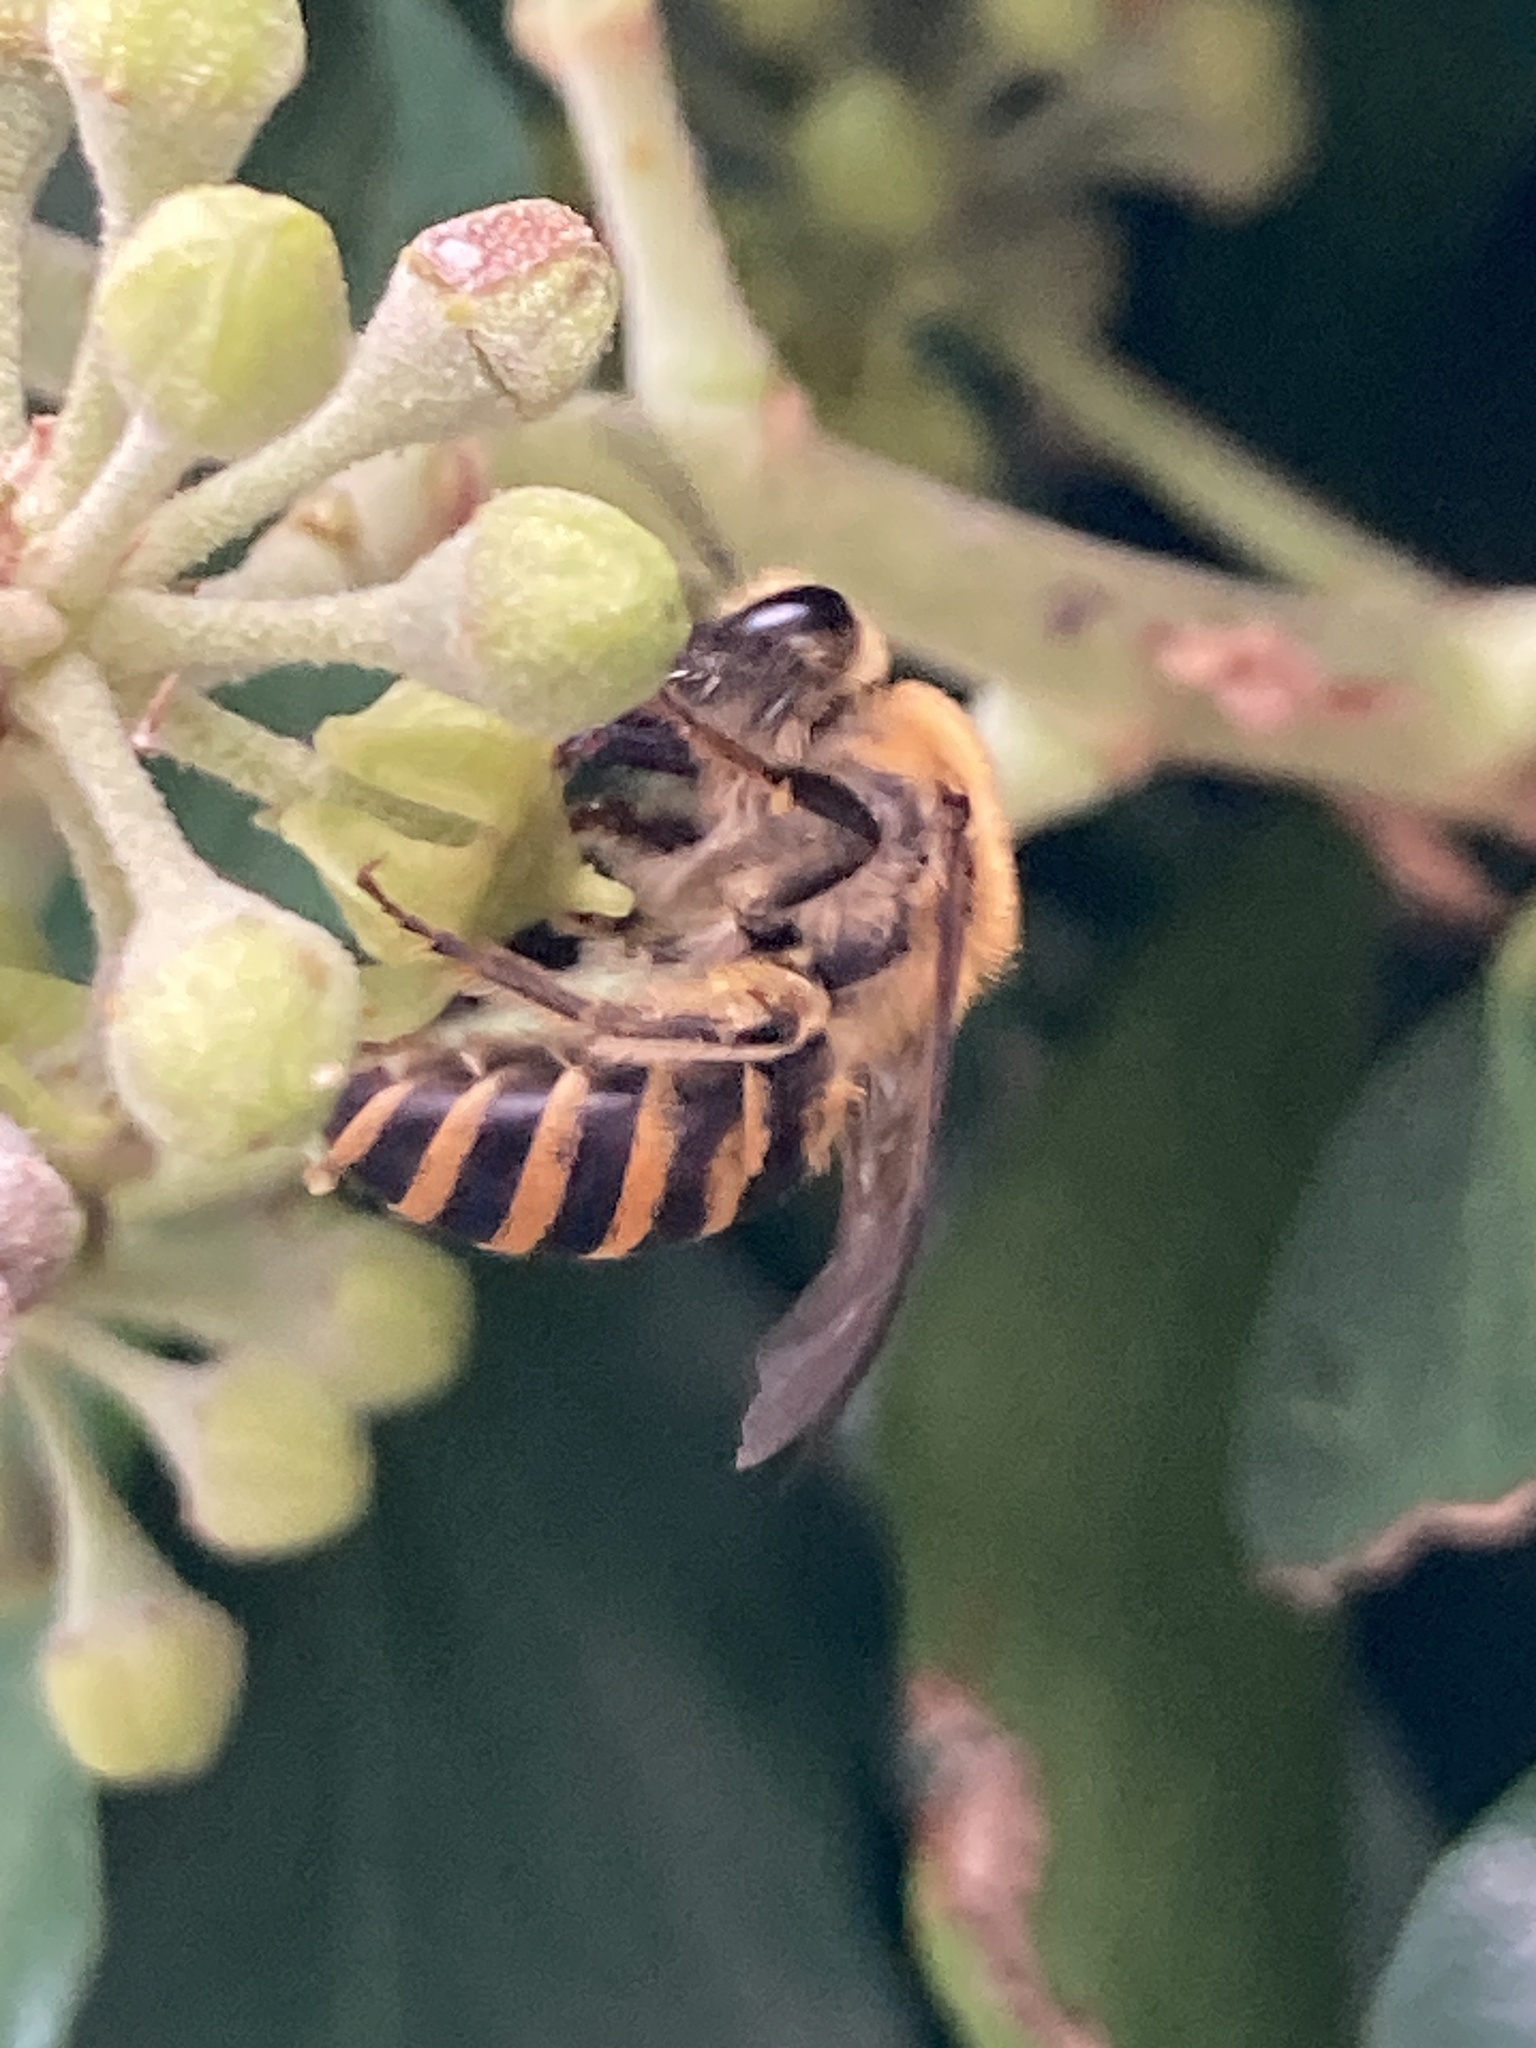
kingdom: Animalia
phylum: Arthropoda
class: Insecta
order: Hymenoptera
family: Colletidae
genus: Colletes
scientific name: Colletes hederae
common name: Ivy bee
